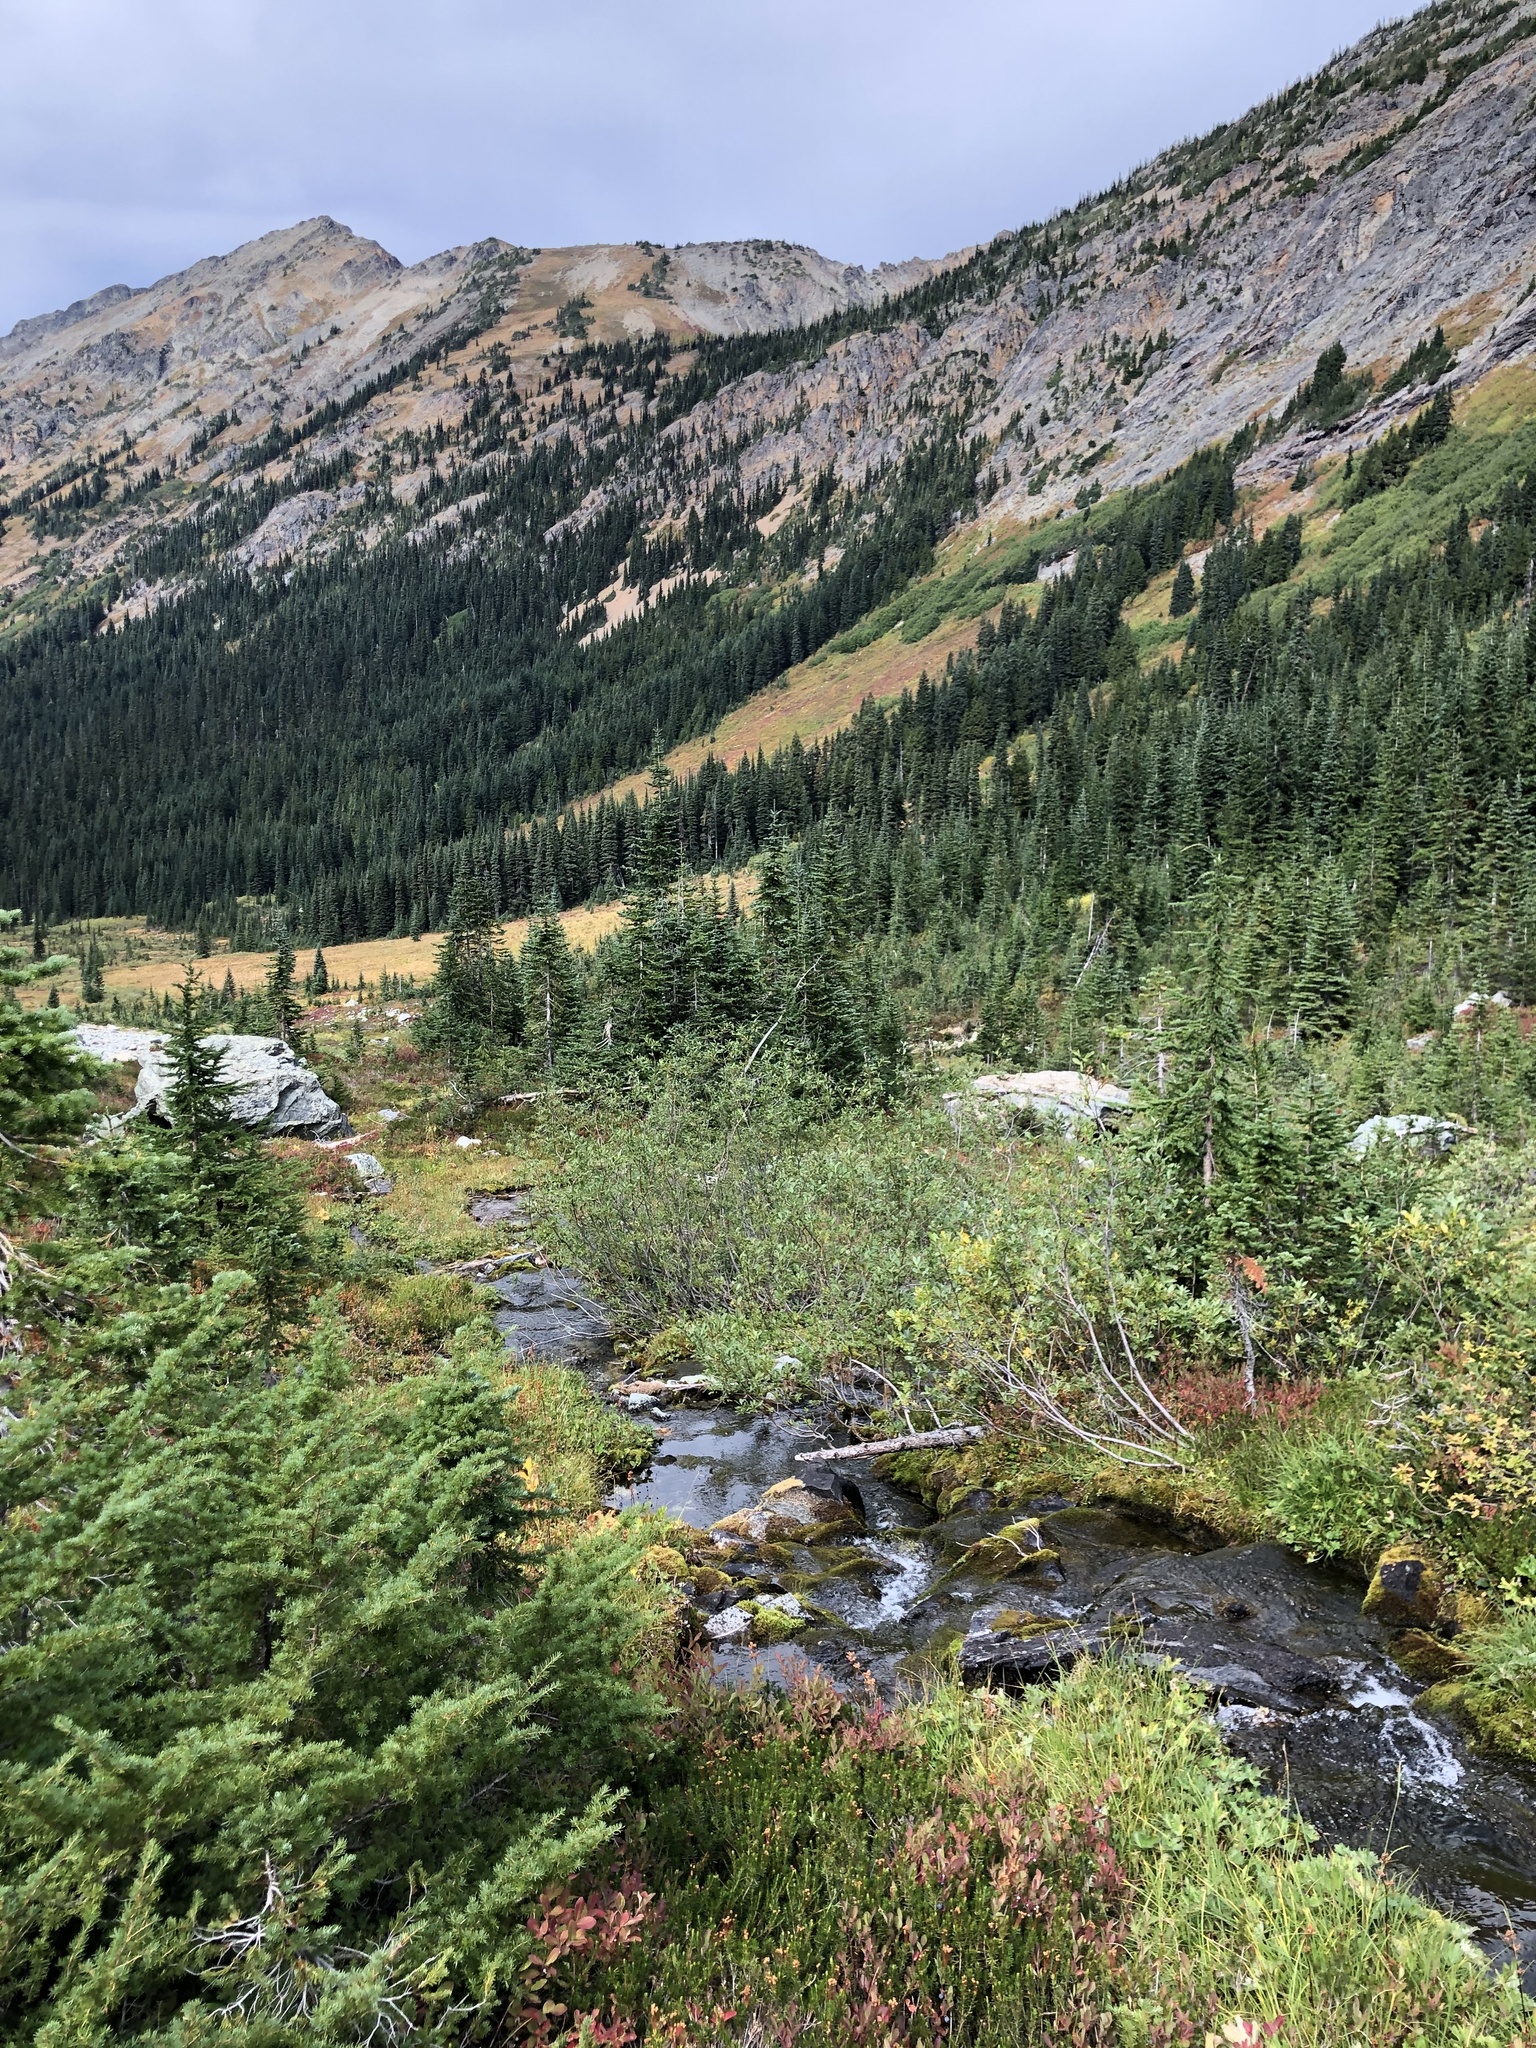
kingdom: Plantae
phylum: Tracheophyta
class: Pinopsida
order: Pinales
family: Pinaceae
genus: Tsuga
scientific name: Tsuga mertensiana
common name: Mountain hemlock
